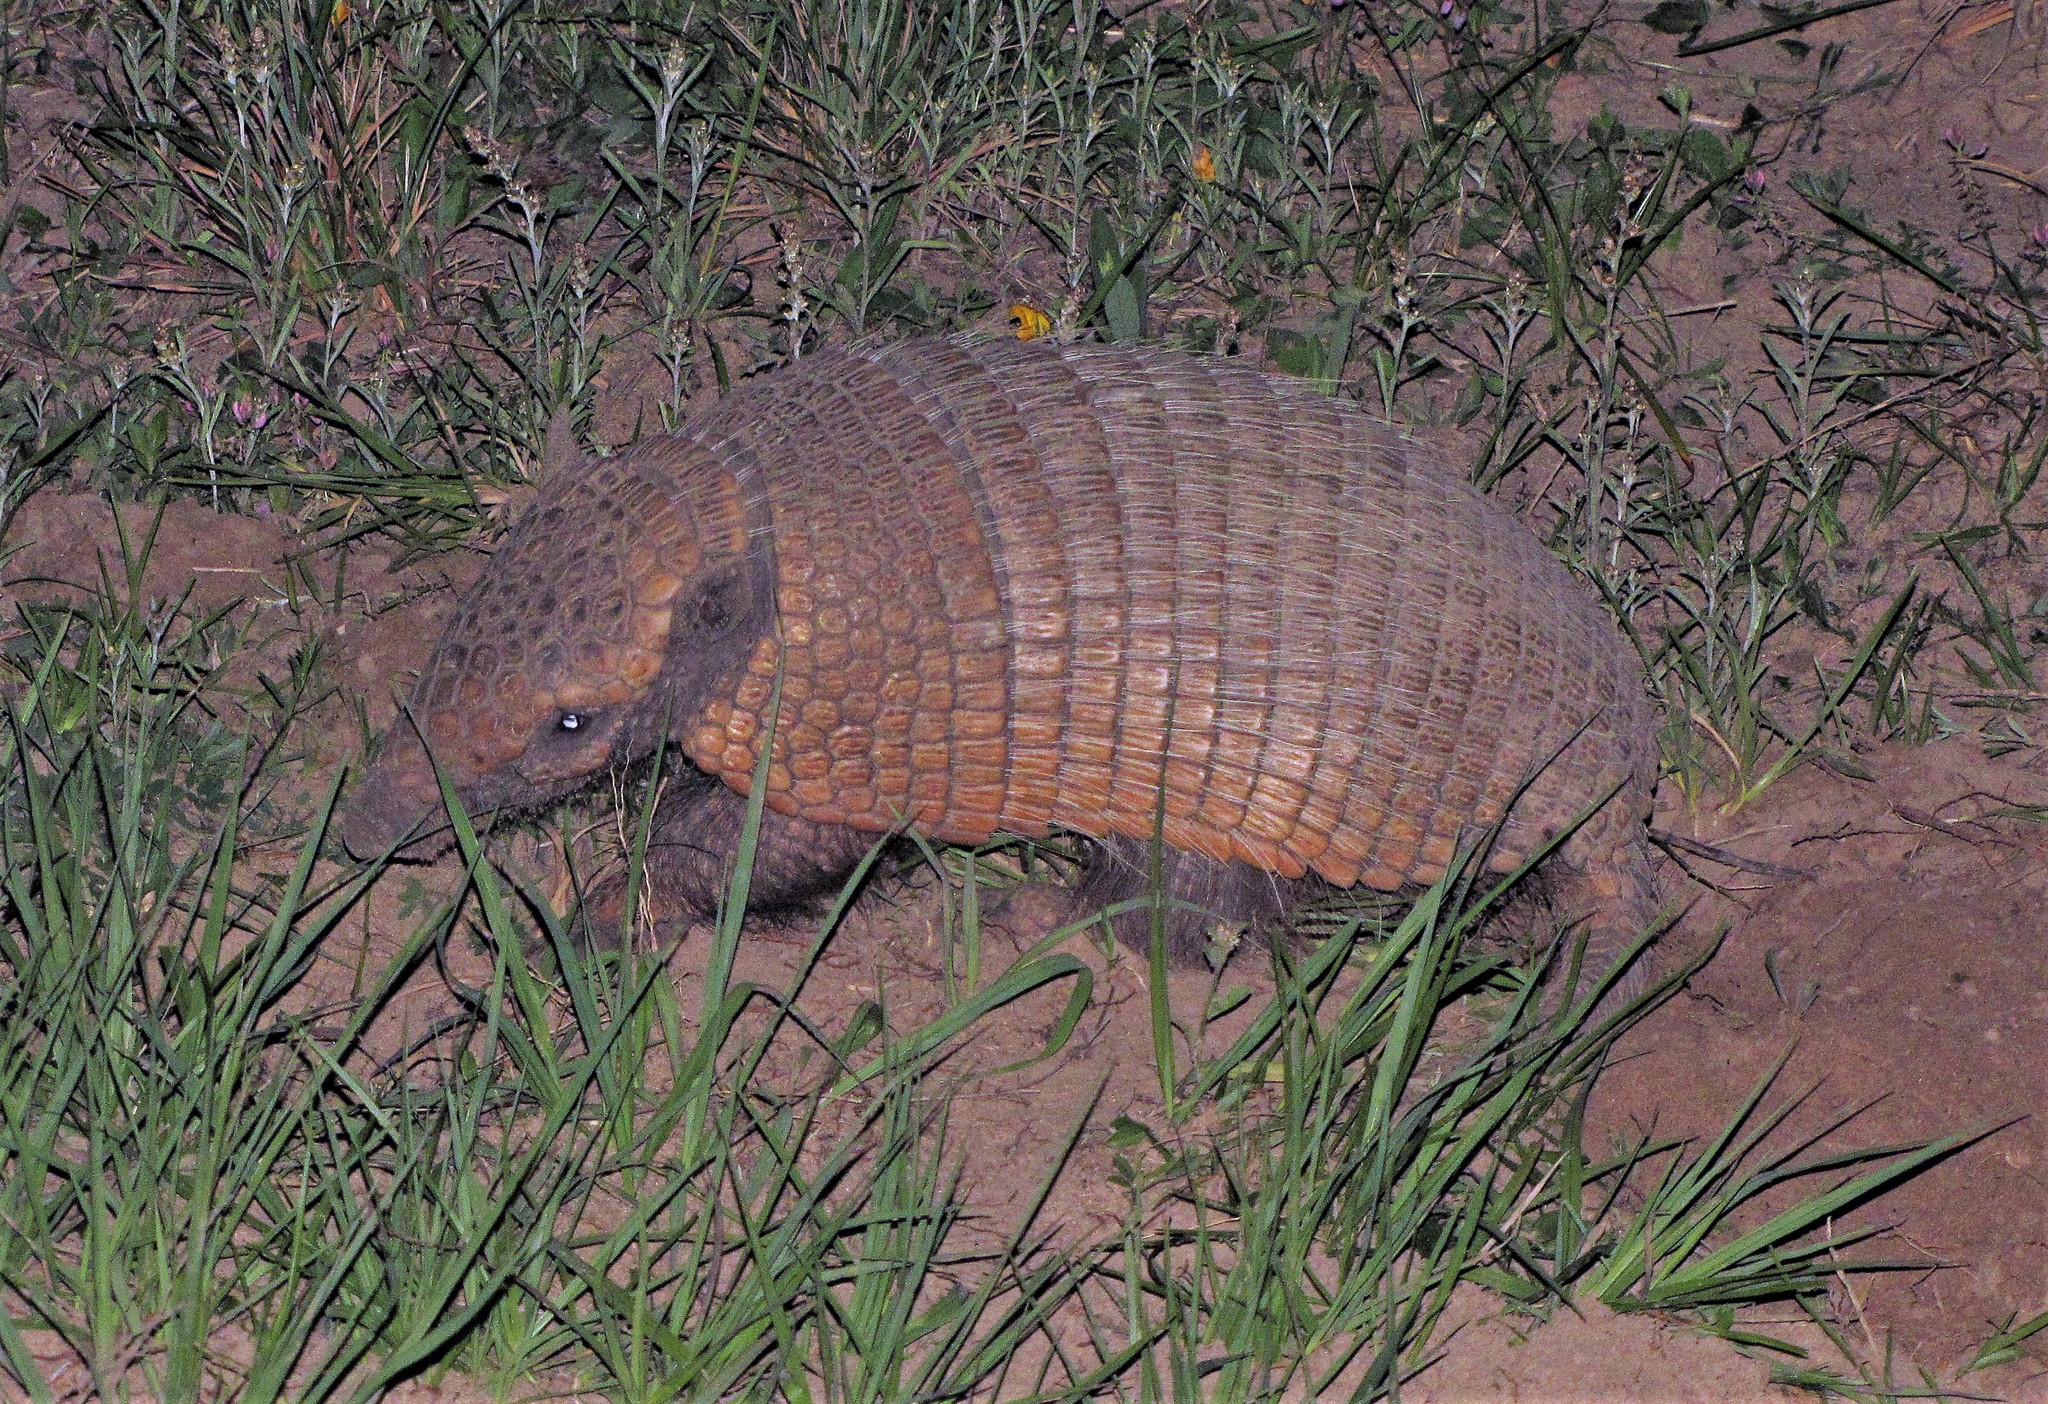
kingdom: Animalia
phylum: Chordata
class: Mammalia
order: Cingulata
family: Dasypodidae
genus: Euphractus
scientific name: Euphractus sexcinctus
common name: Six-banded armadillo
